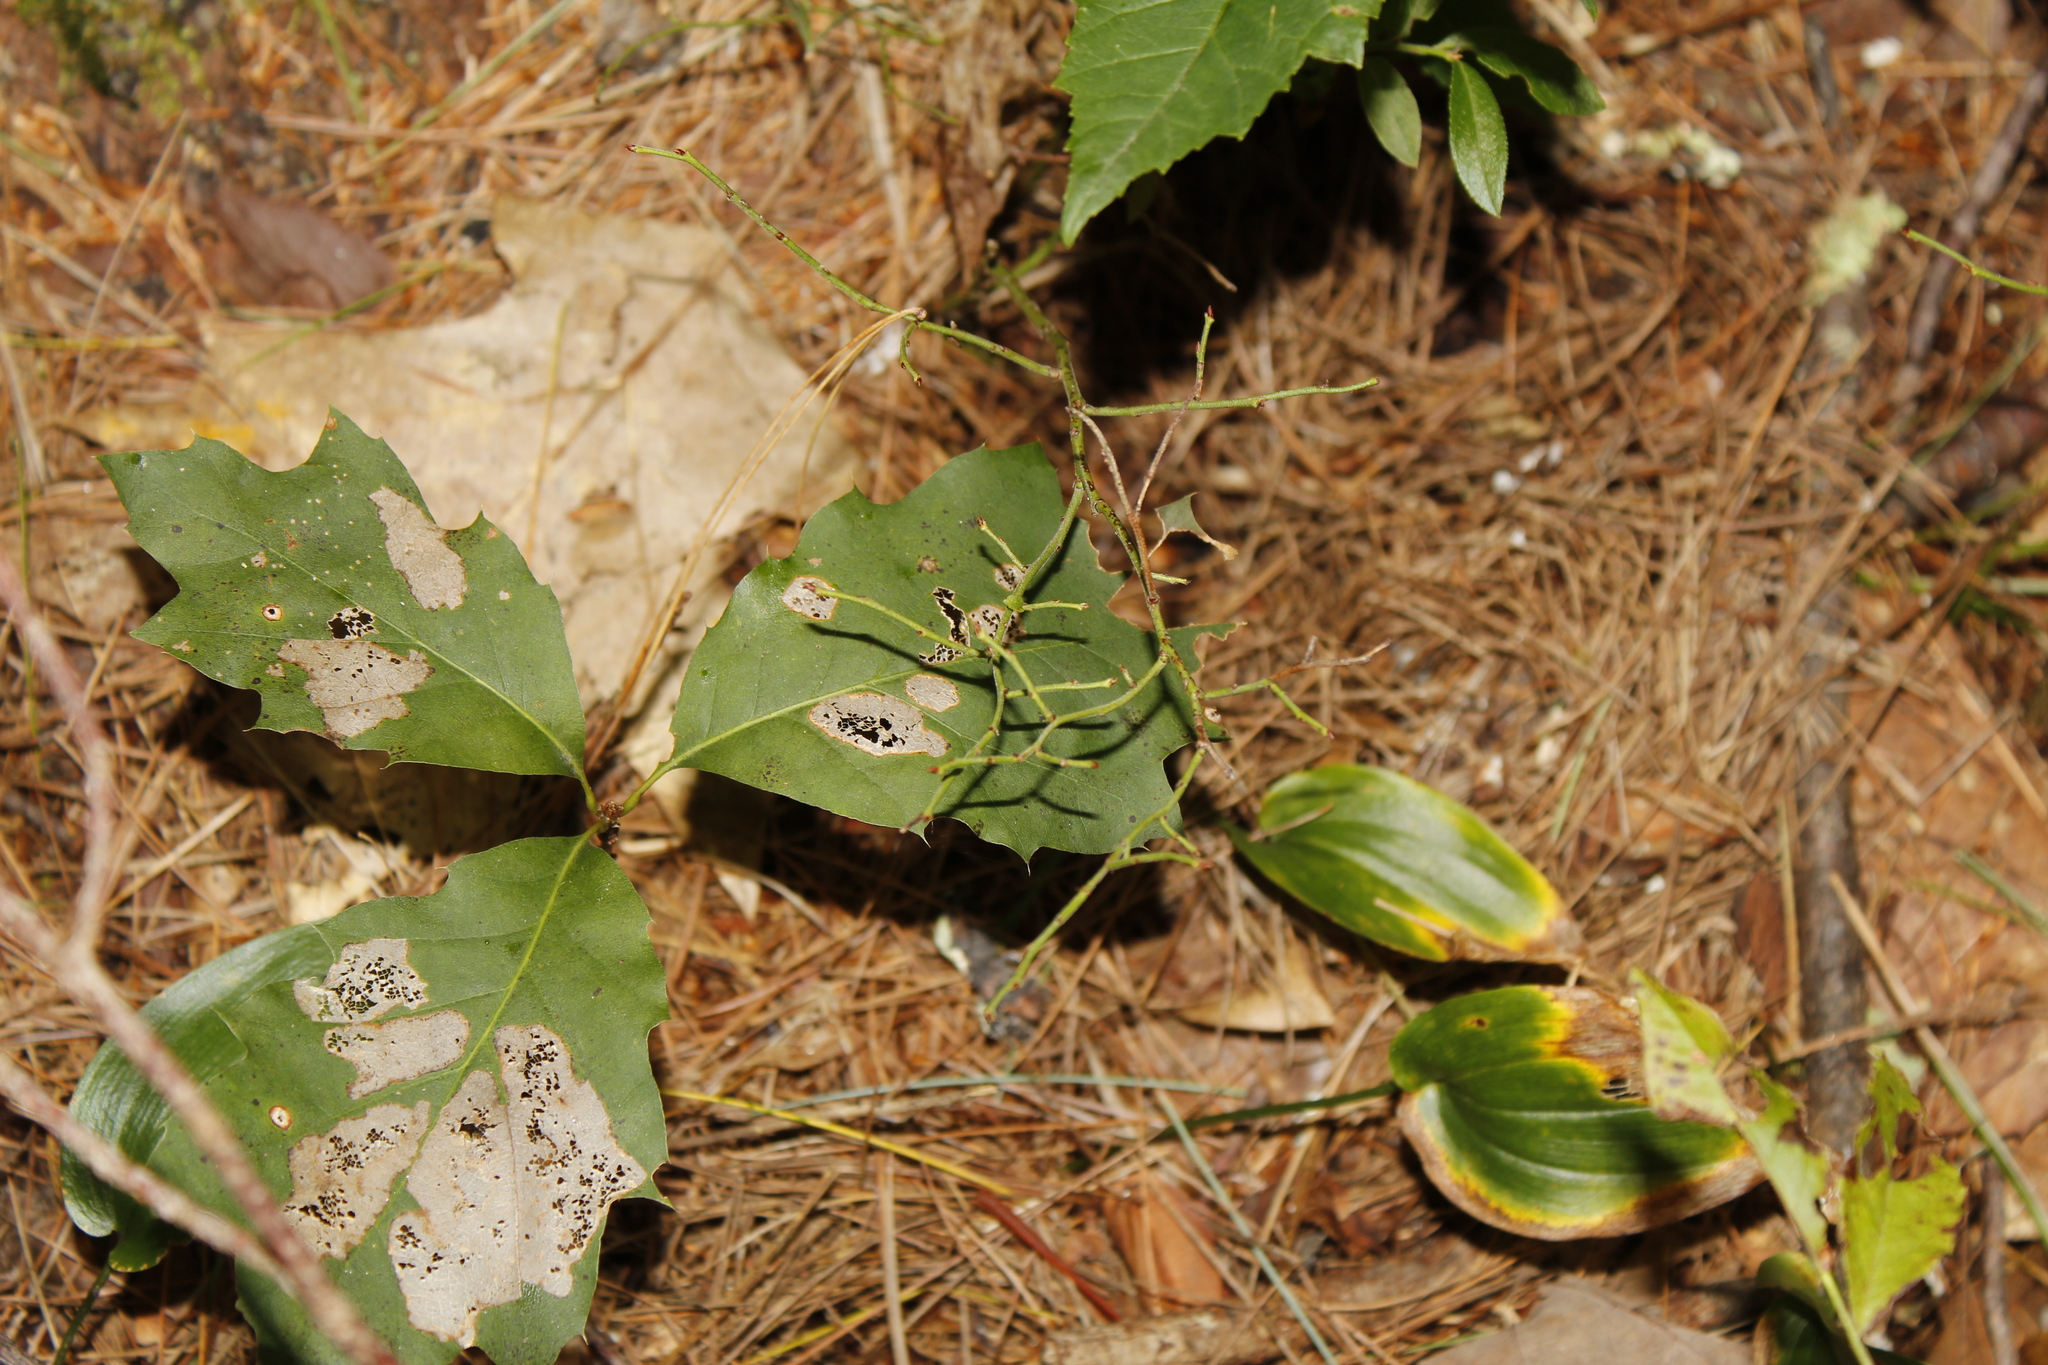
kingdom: Plantae
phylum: Tracheophyta
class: Liliopsida
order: Asparagales
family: Asparagaceae
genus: Maianthemum
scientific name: Maianthemum canadense
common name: False lily-of-the-valley
